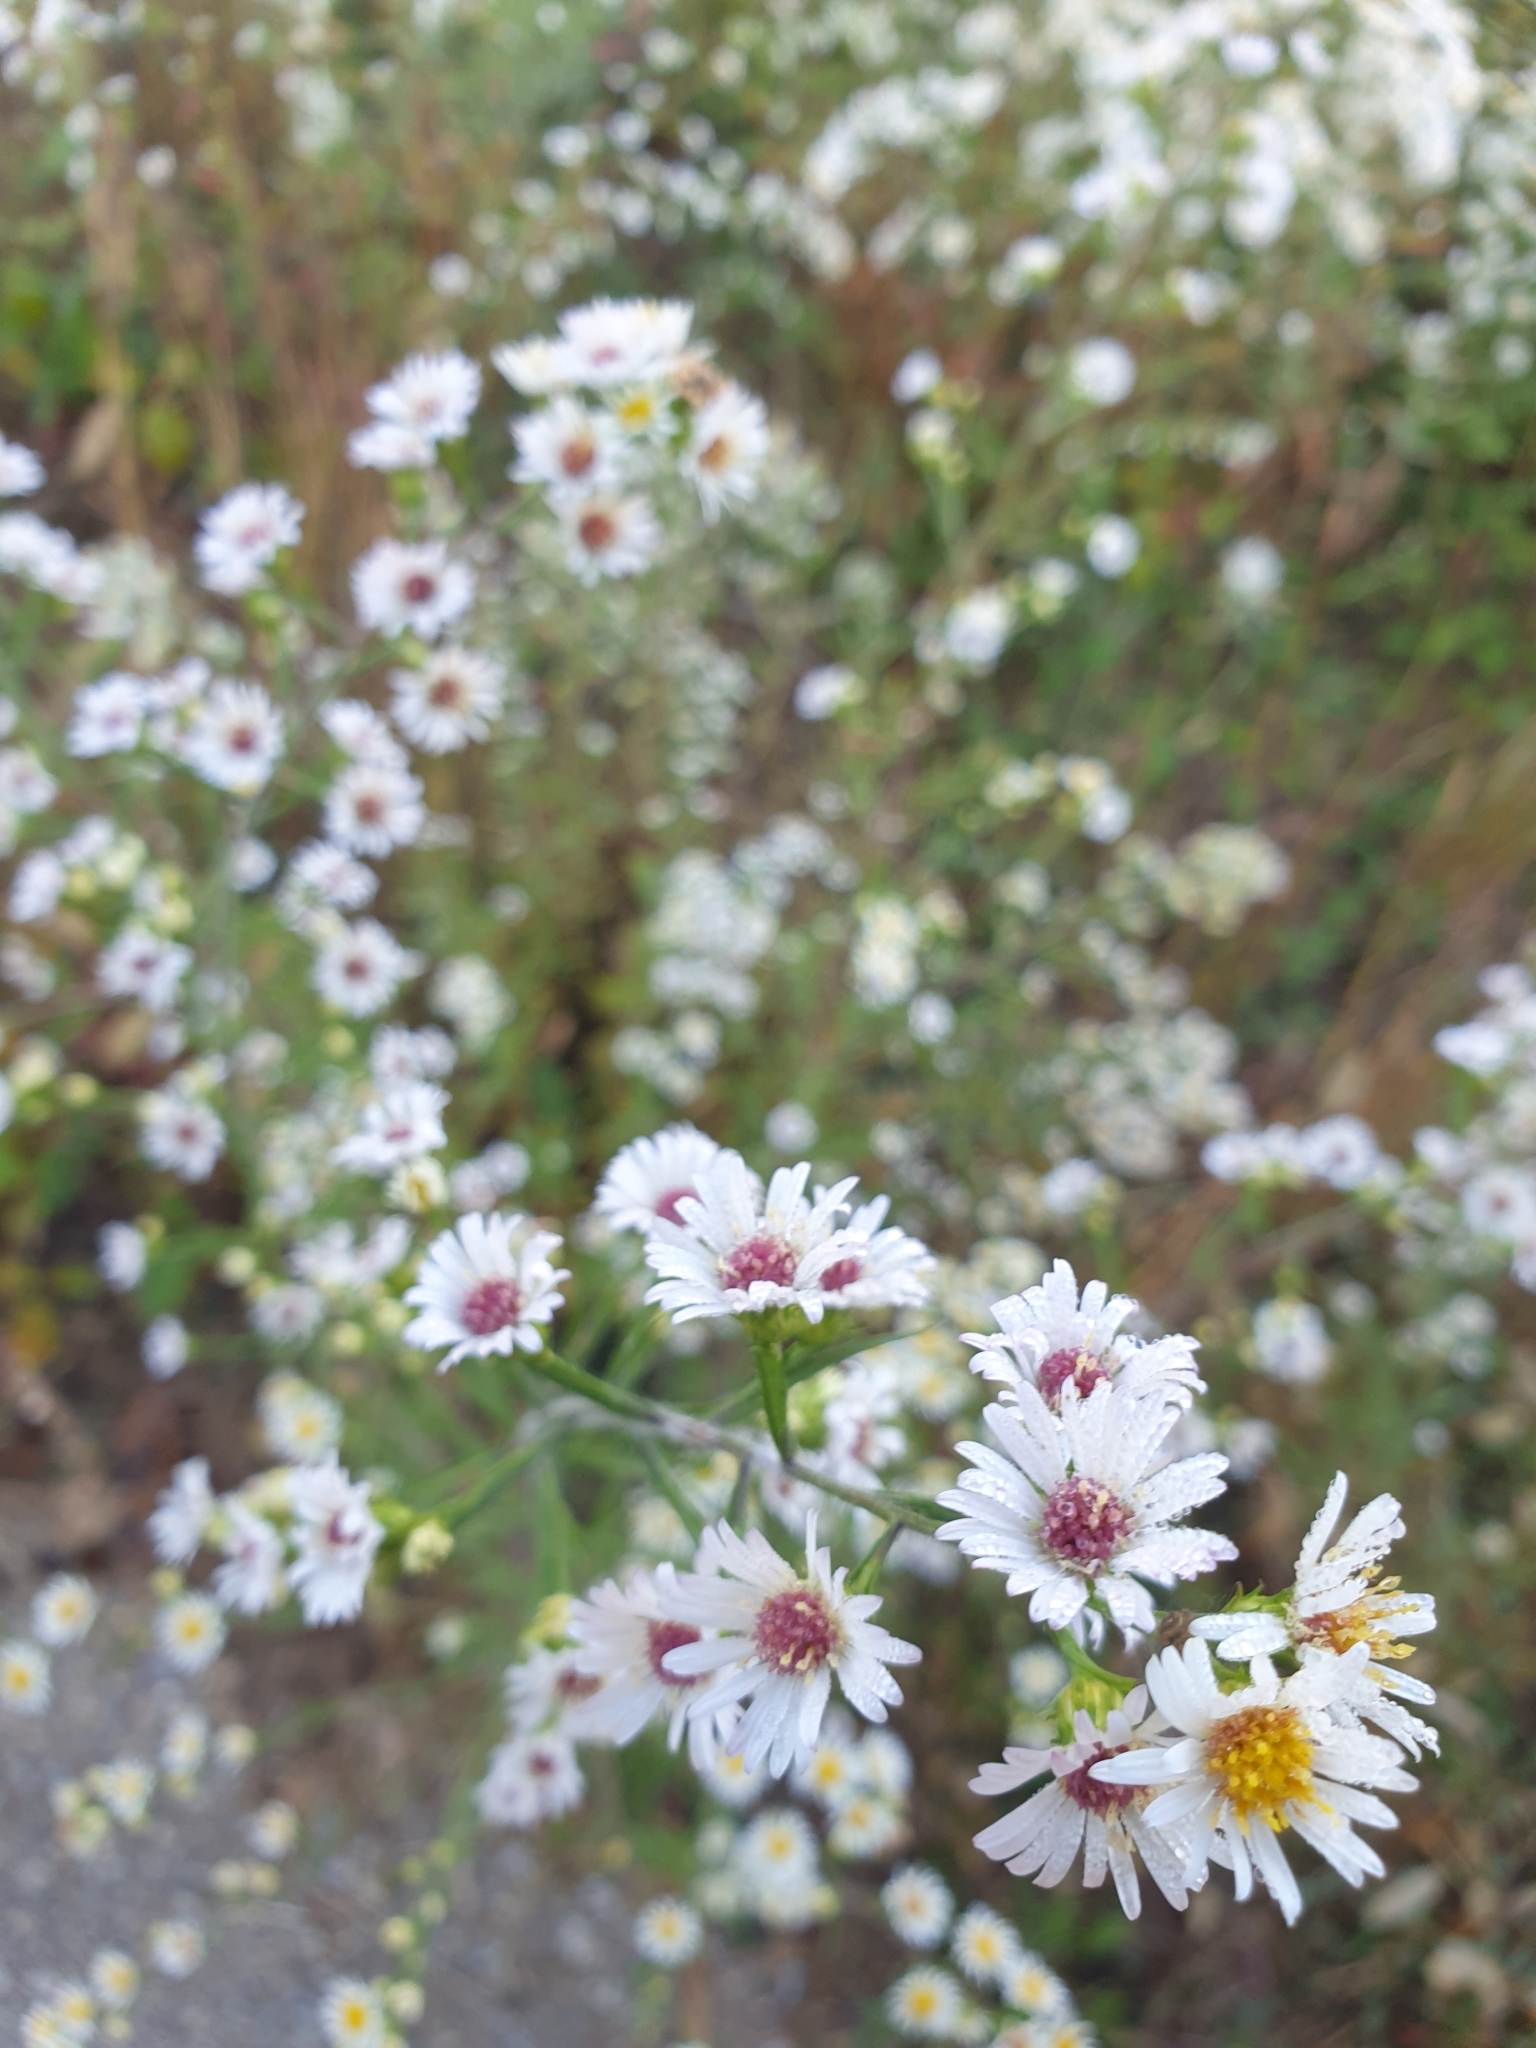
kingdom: Plantae
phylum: Tracheophyta
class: Magnoliopsida
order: Asterales
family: Asteraceae
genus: Symphyotrichum
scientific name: Symphyotrichum pilosum
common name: Awl aster
